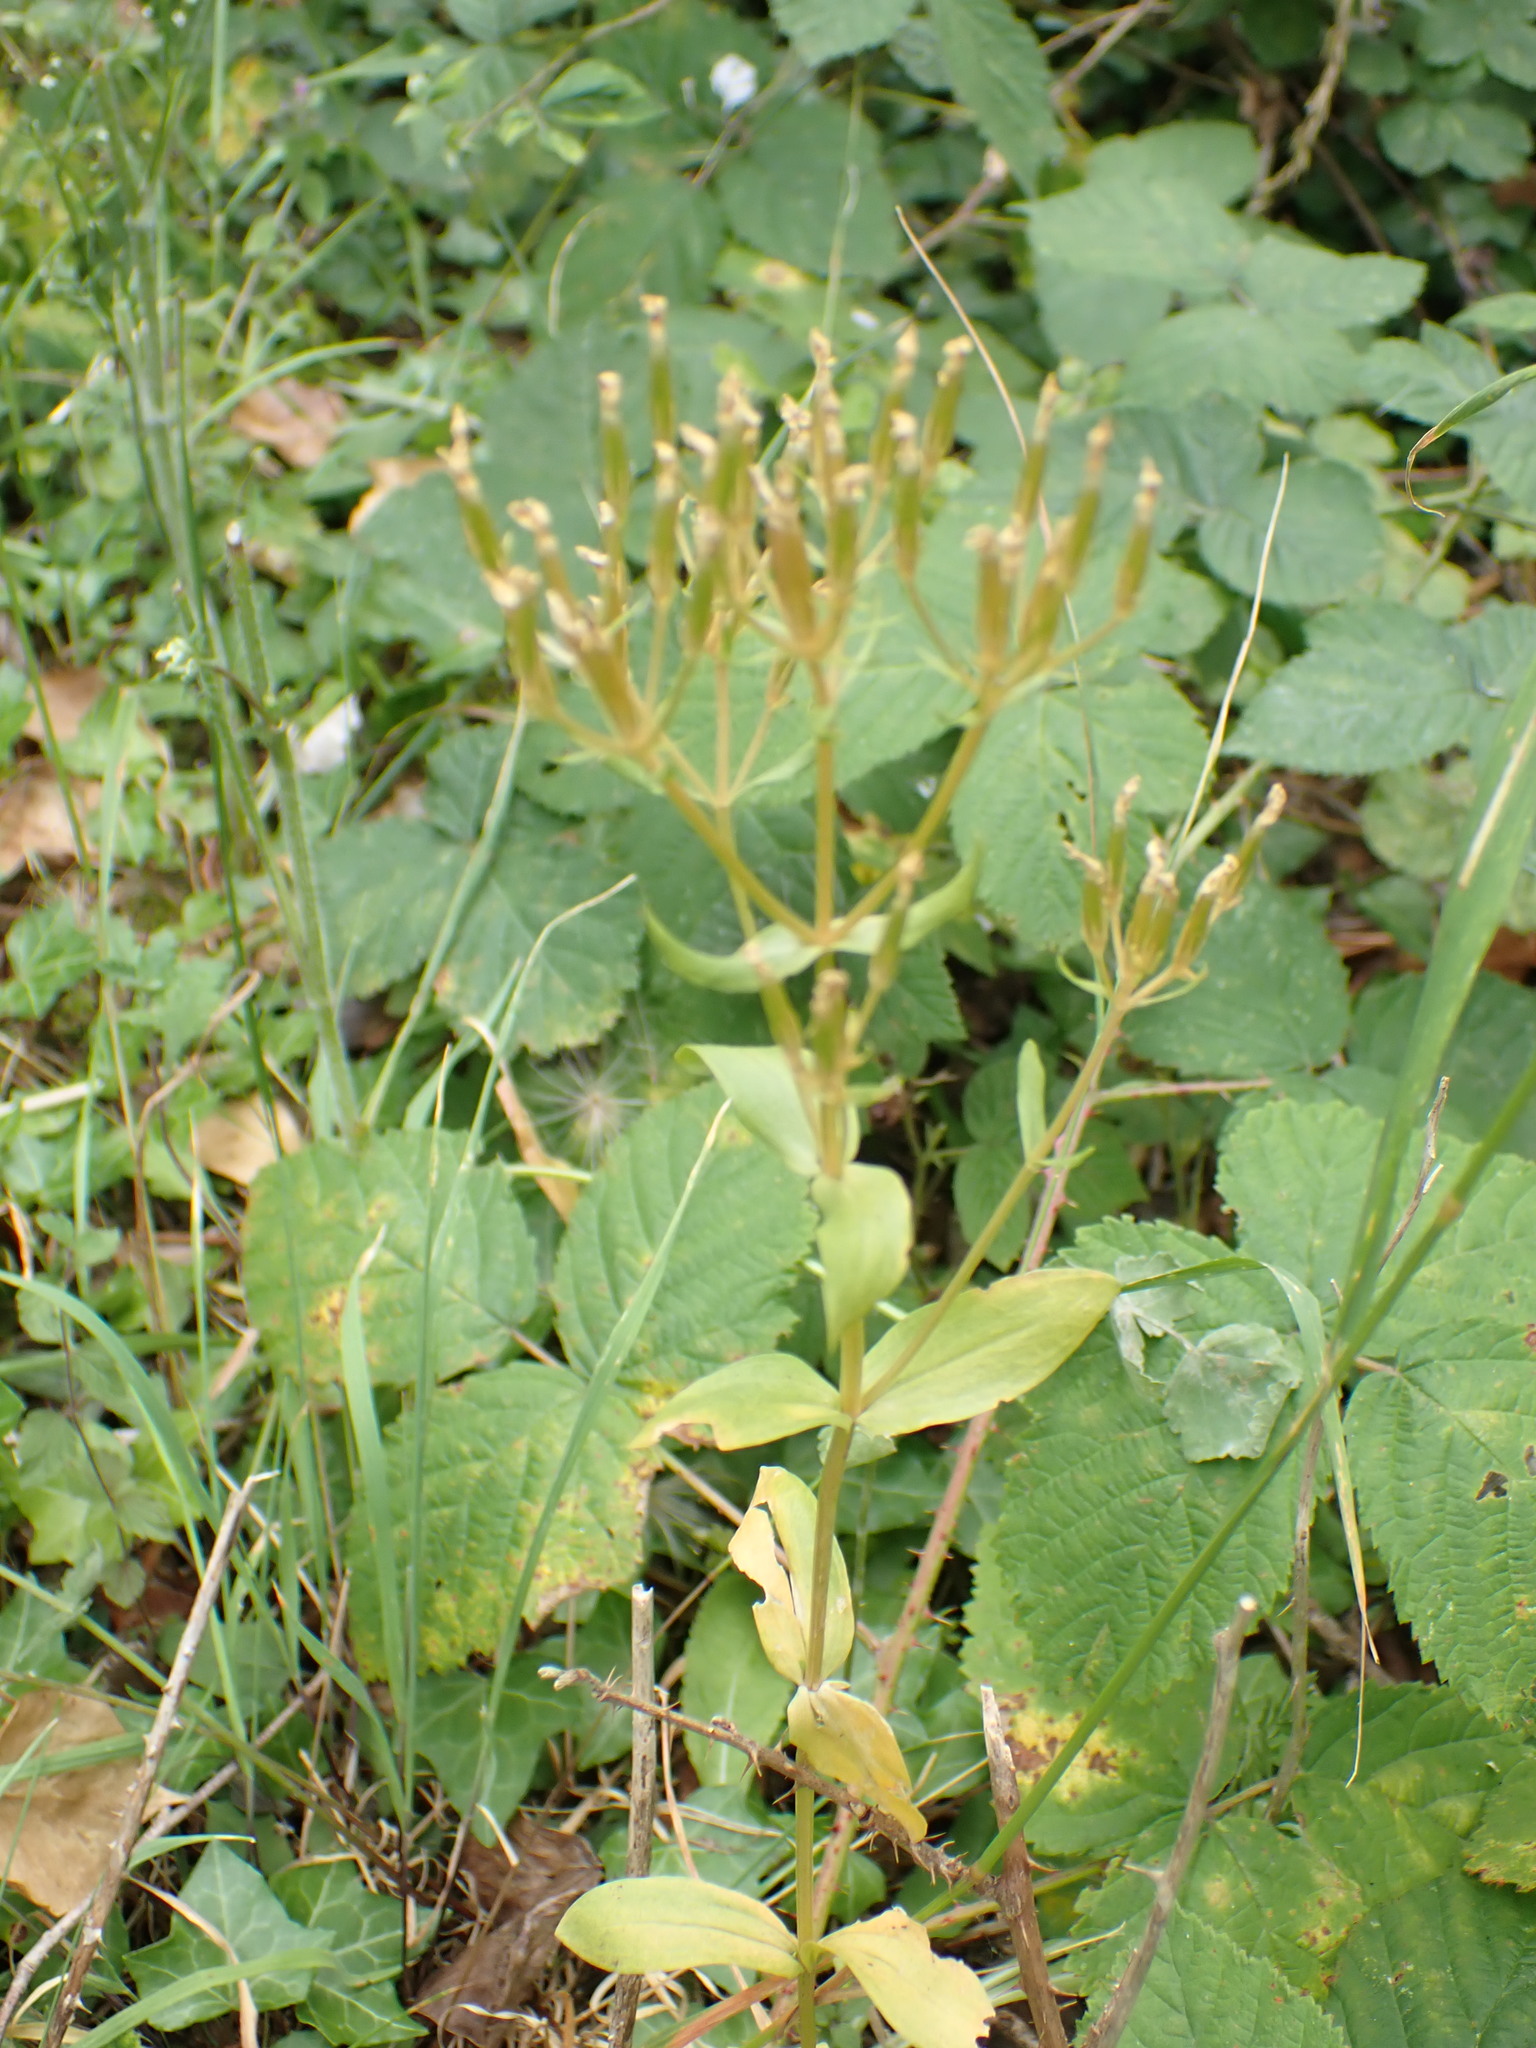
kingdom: Plantae
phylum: Tracheophyta
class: Magnoliopsida
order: Gentianales
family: Gentianaceae
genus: Centaurium
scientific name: Centaurium erythraea
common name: Common centaury
